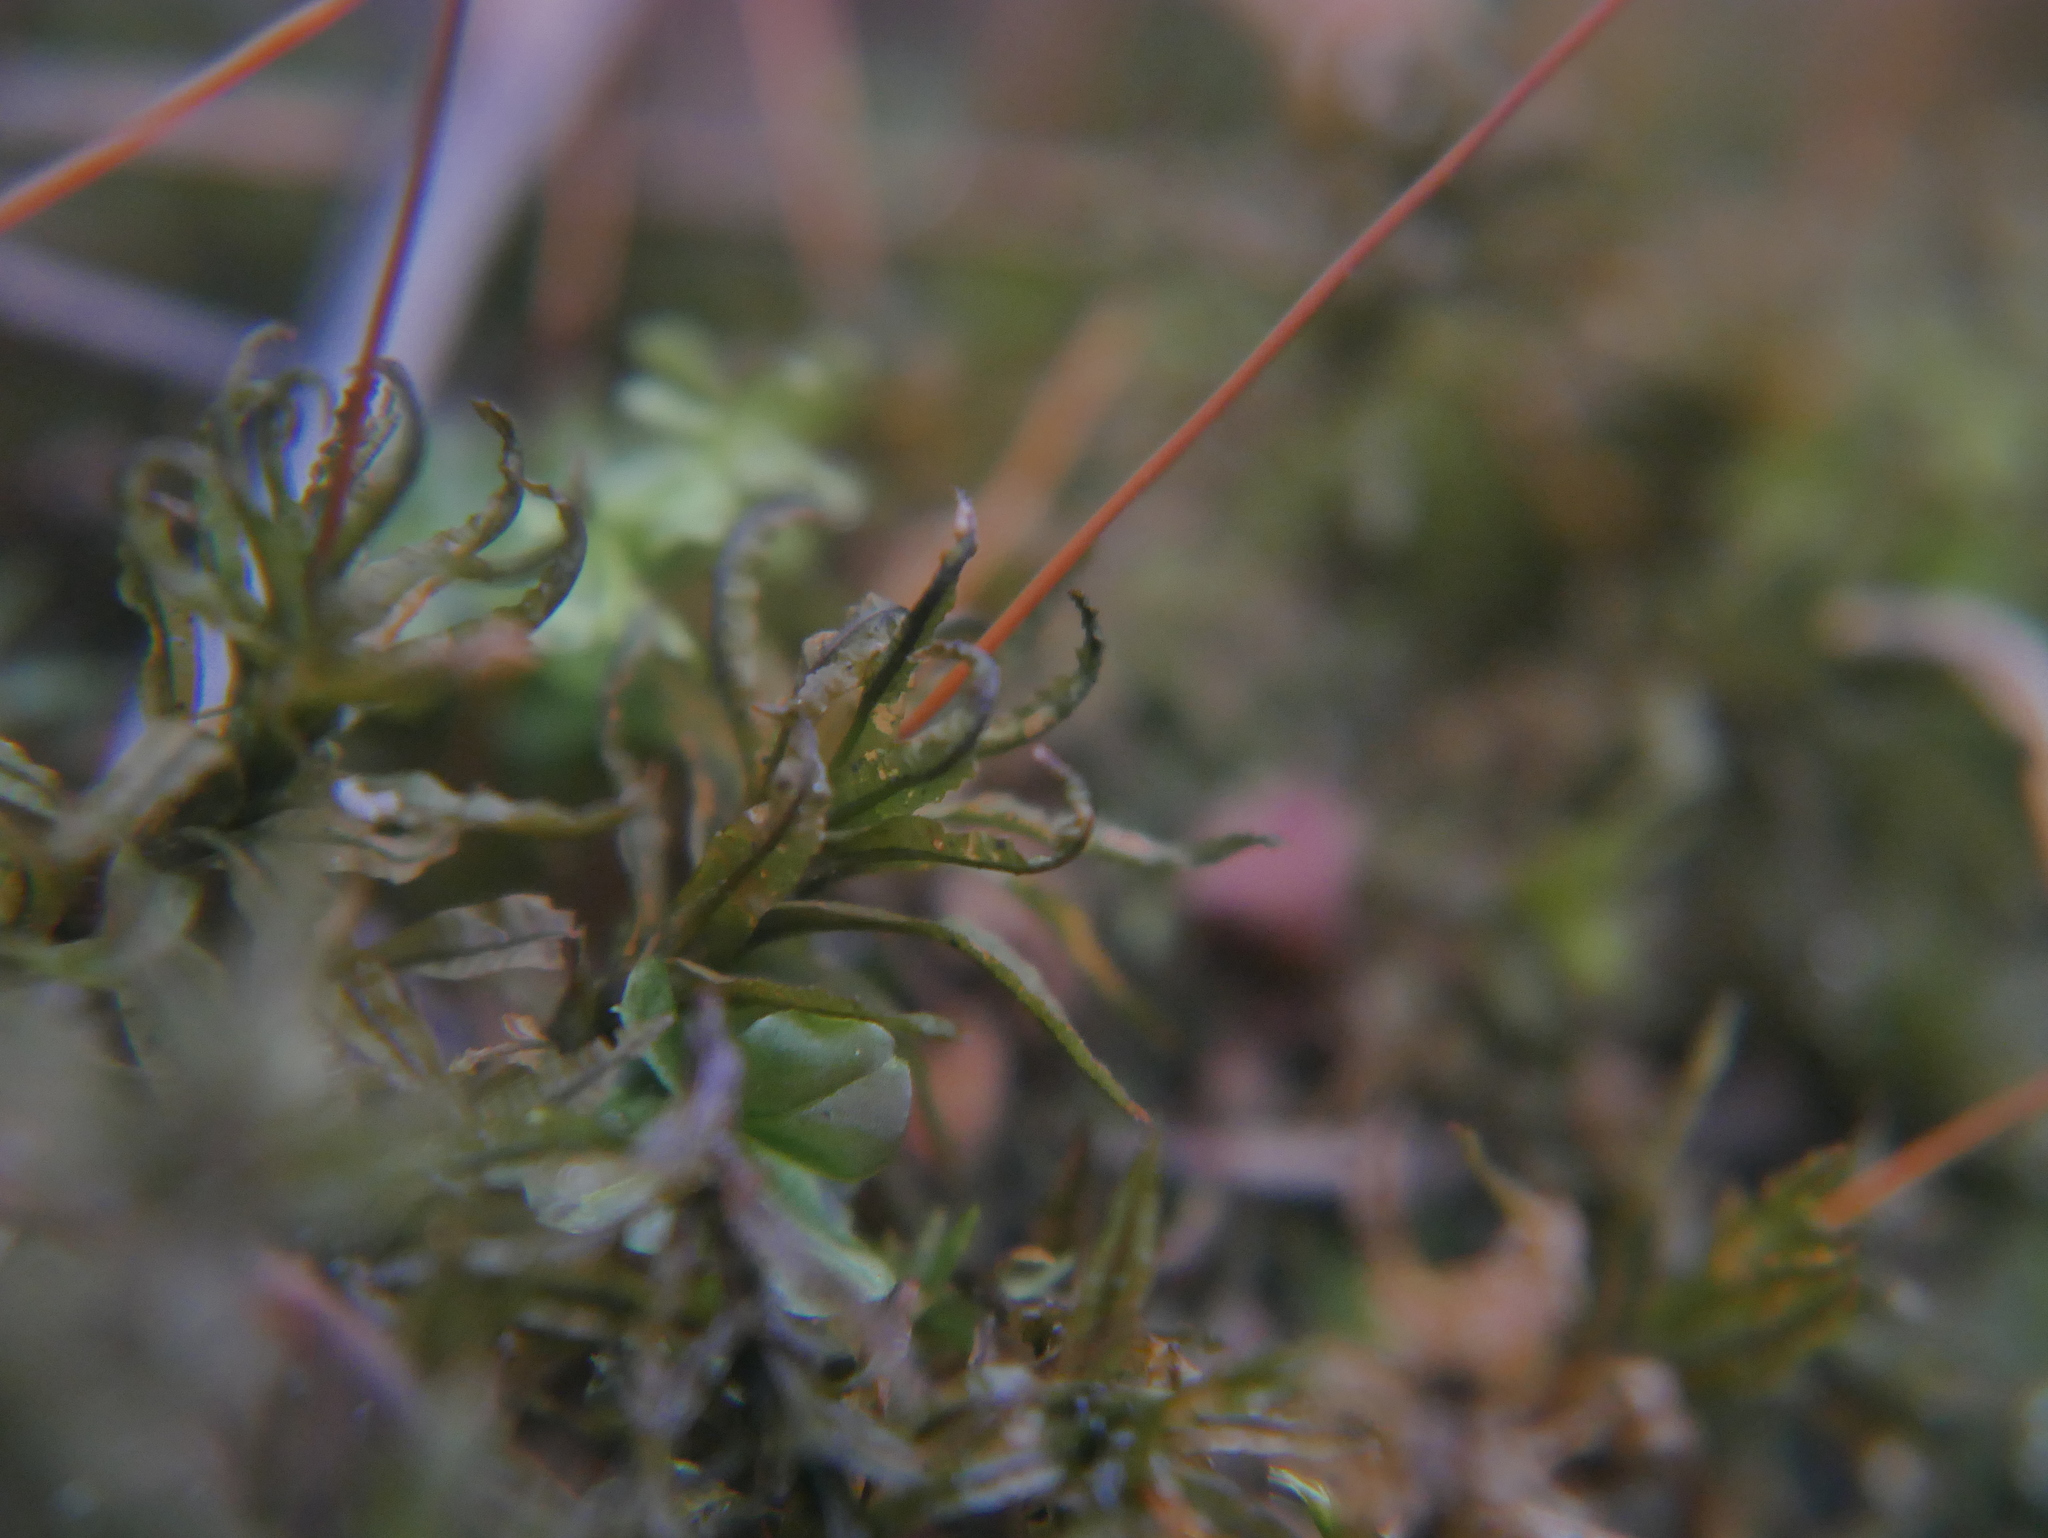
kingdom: Plantae
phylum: Bryophyta
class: Polytrichopsida
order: Polytrichales
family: Polytrichaceae
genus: Atrichum
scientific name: Atrichum undulatum
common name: Common smoothcap
